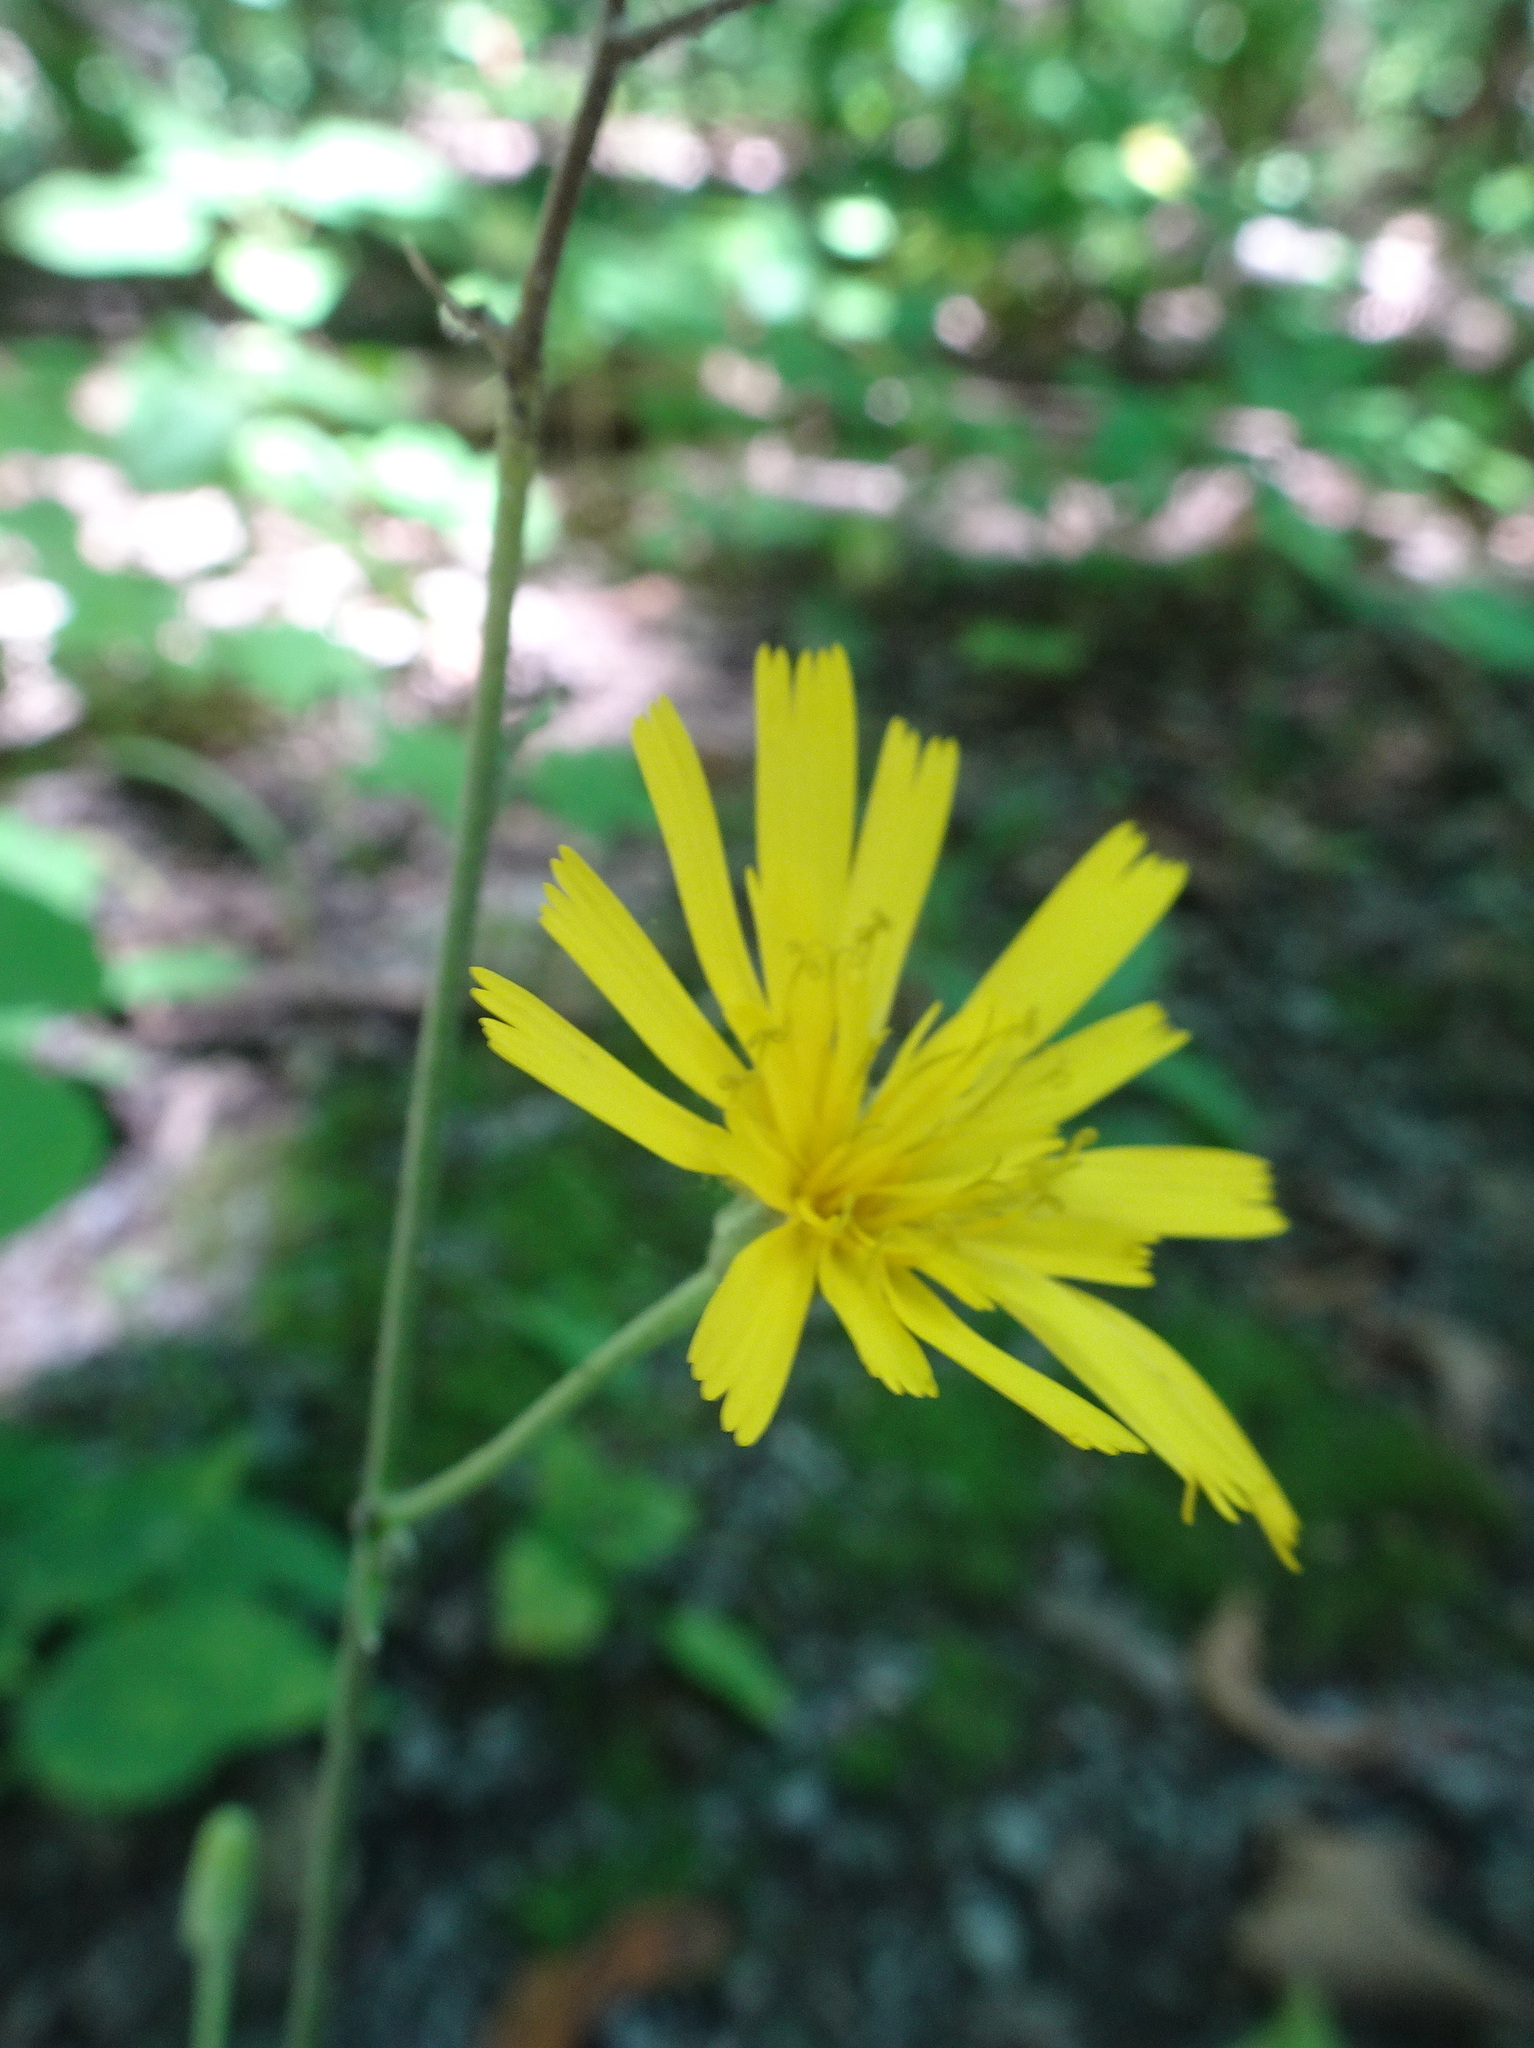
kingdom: Plantae
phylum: Tracheophyta
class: Magnoliopsida
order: Asterales
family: Asteraceae
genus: Hieracium
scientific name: Hieracium lachenalii
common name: Common hawkweed
